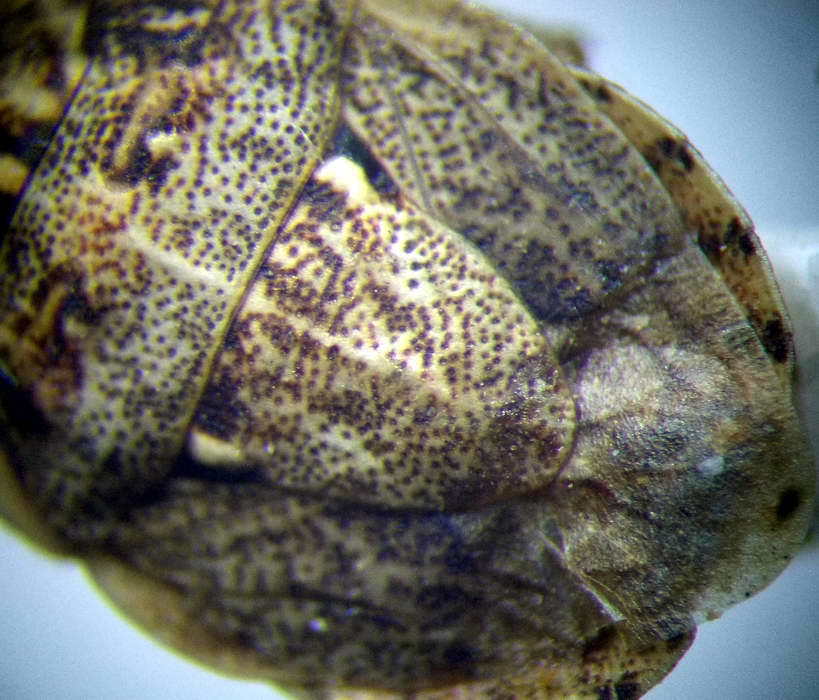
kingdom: Animalia
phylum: Arthropoda
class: Insecta
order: Hemiptera
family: Pentatomidae
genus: Menaccarus
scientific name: Menaccarus arenicola
